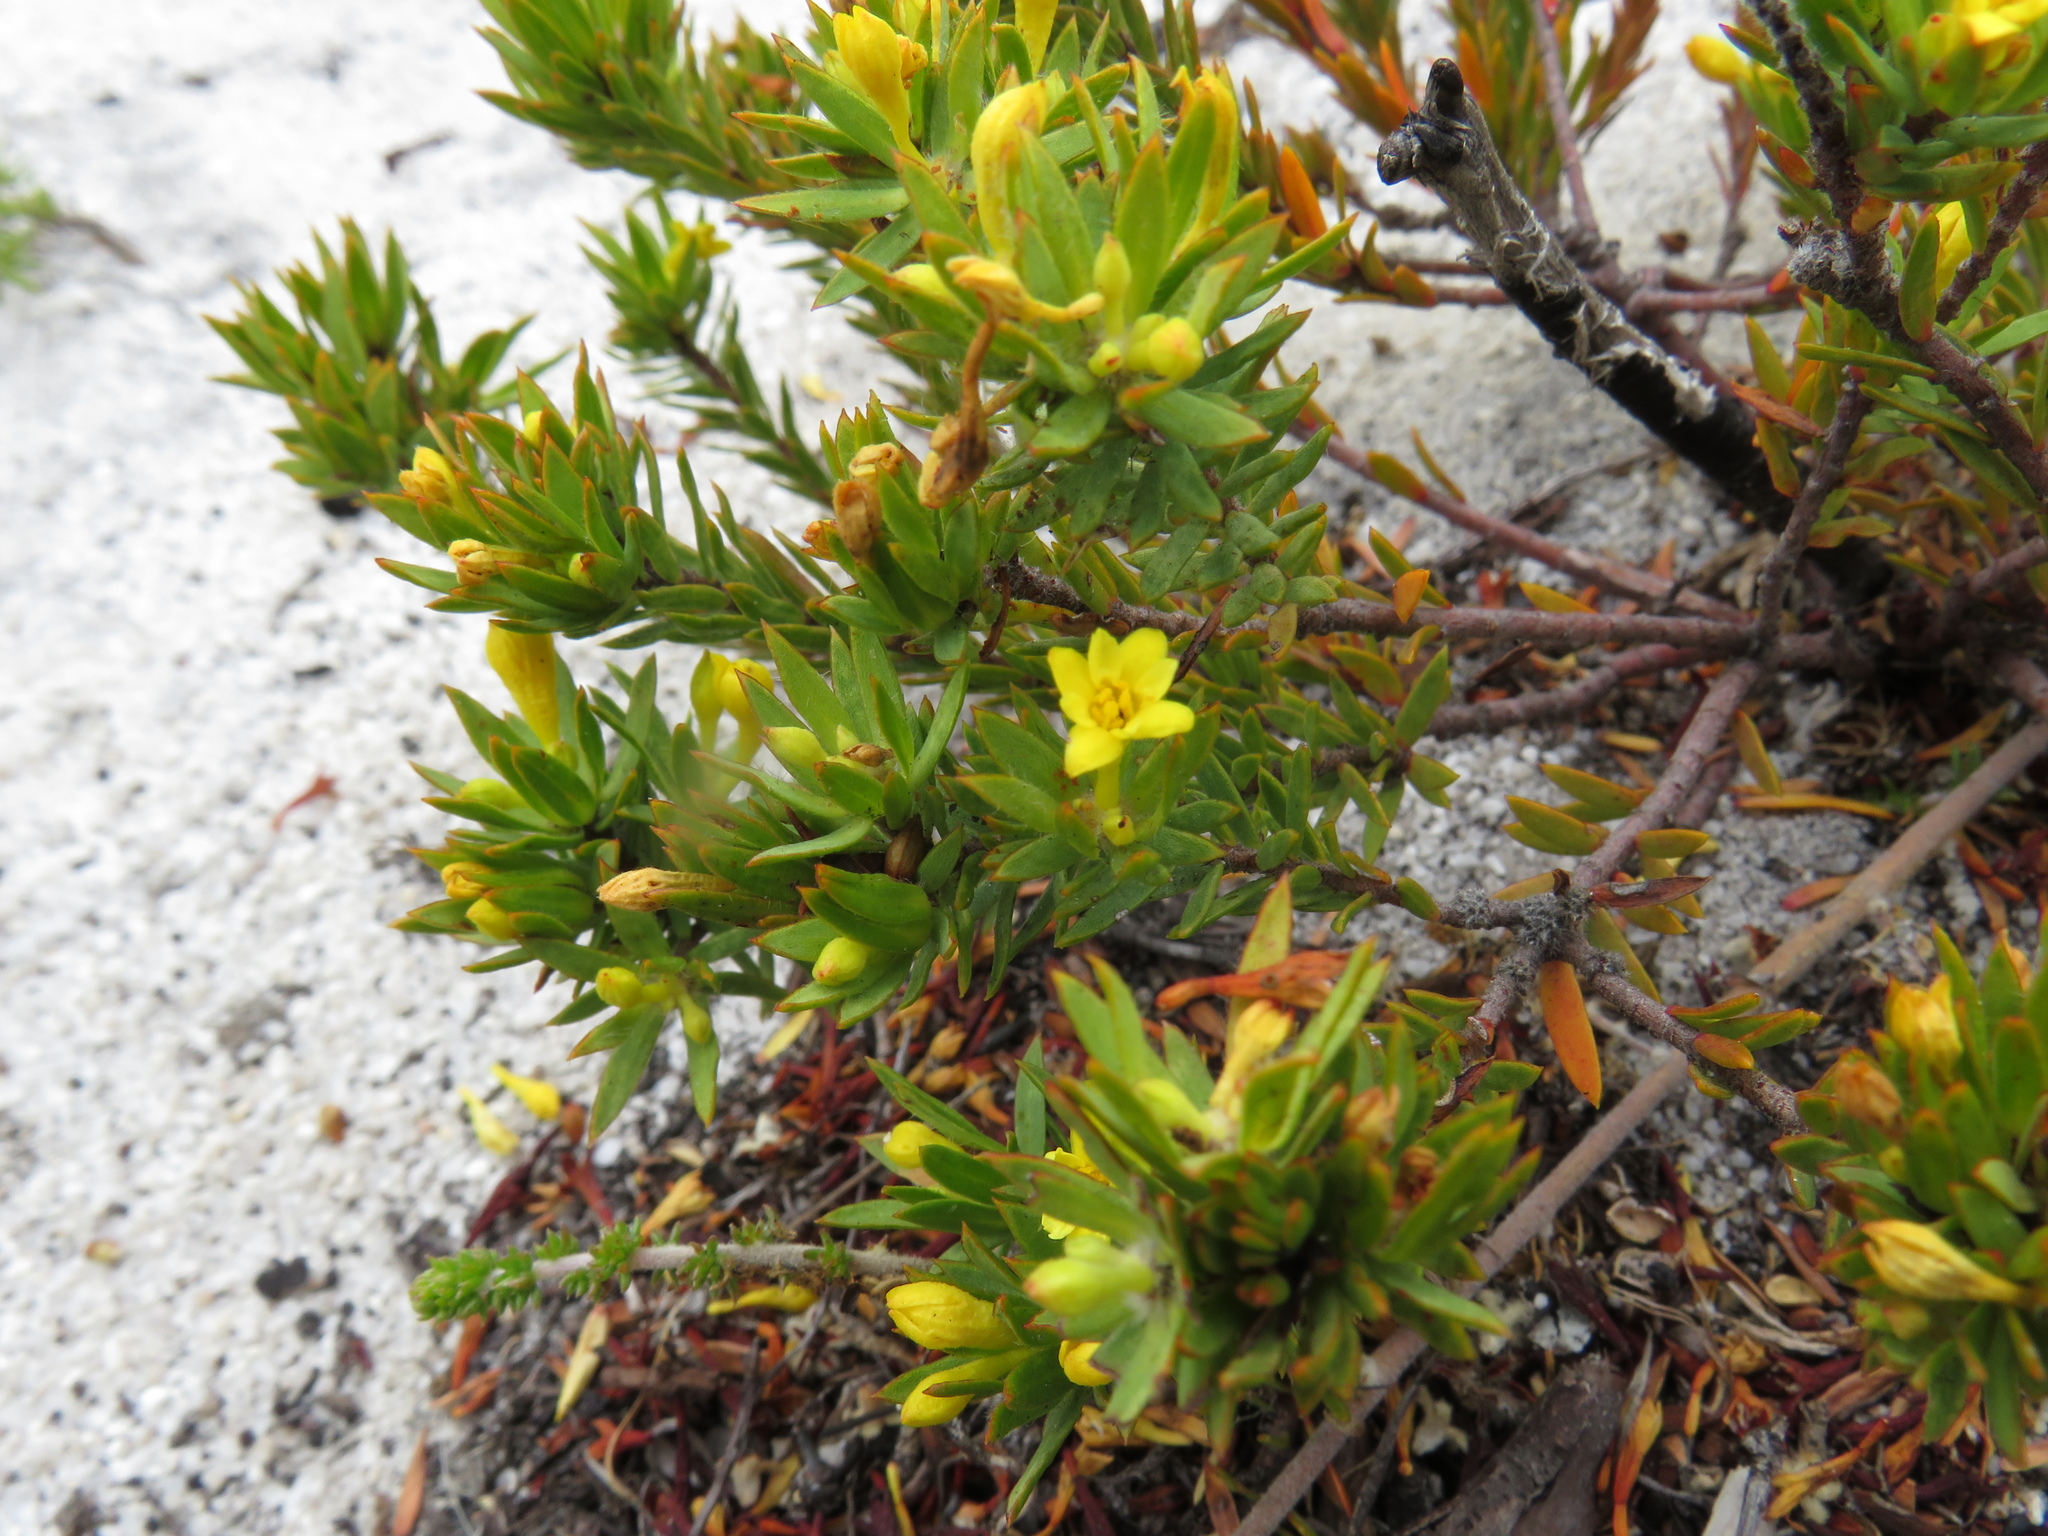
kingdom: Plantae
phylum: Tracheophyta
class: Magnoliopsida
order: Malvales
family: Thymelaeaceae
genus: Gnidia
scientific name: Gnidia juniperifolia
